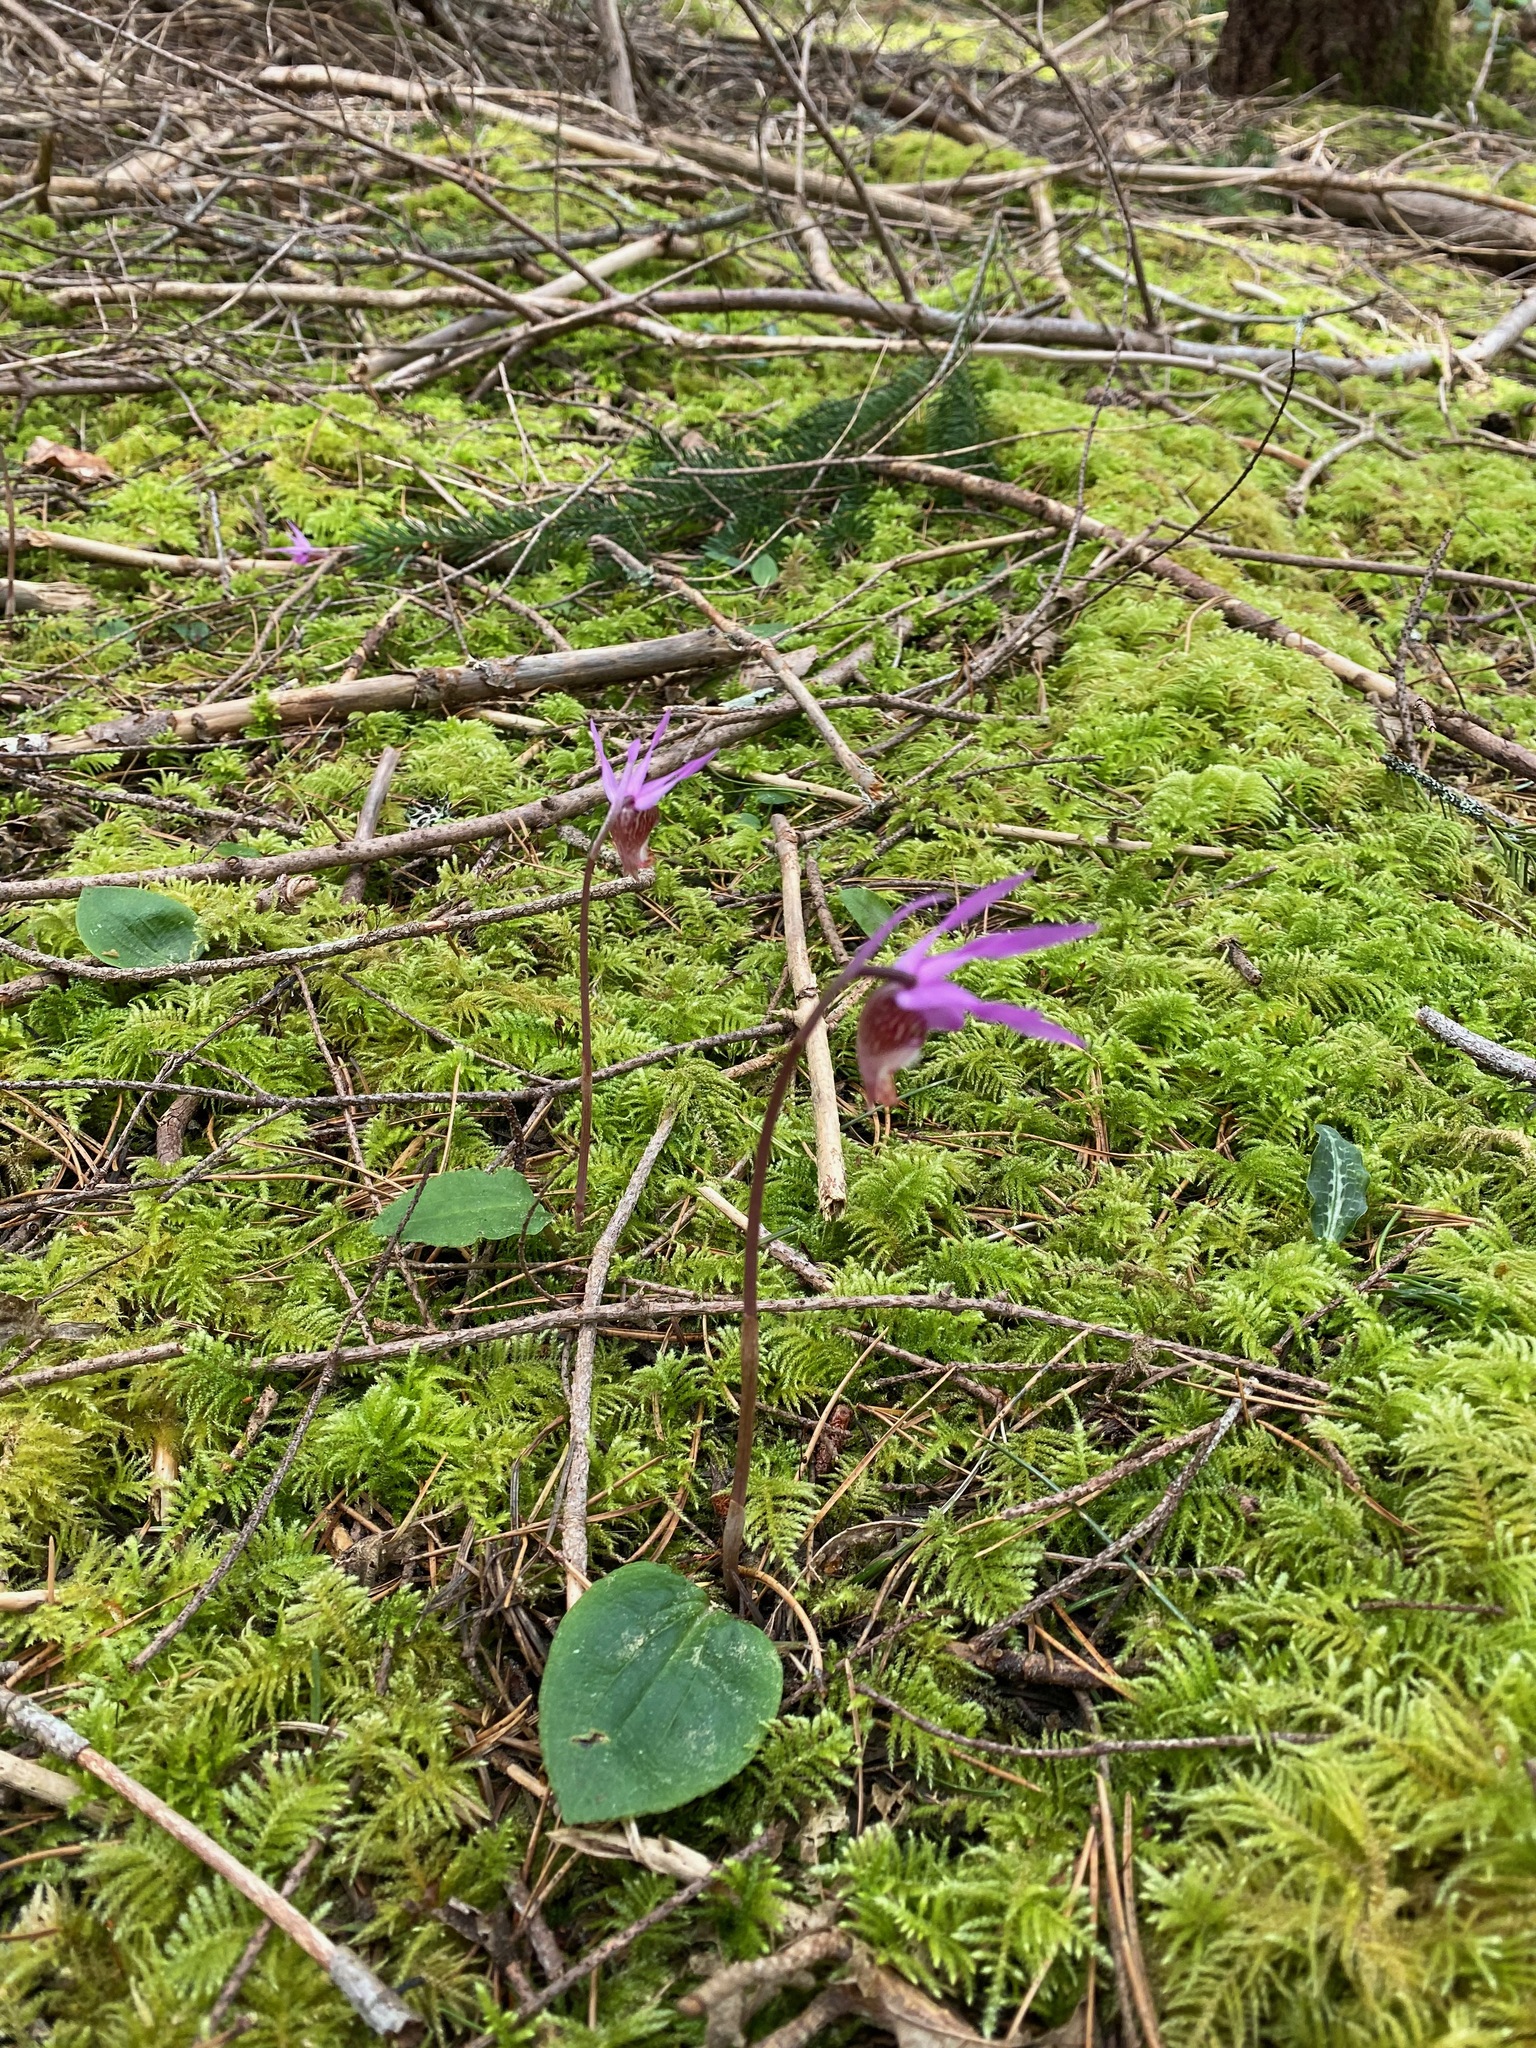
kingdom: Plantae
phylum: Tracheophyta
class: Liliopsida
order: Asparagales
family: Orchidaceae
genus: Calypso
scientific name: Calypso bulbosa
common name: Calypso
